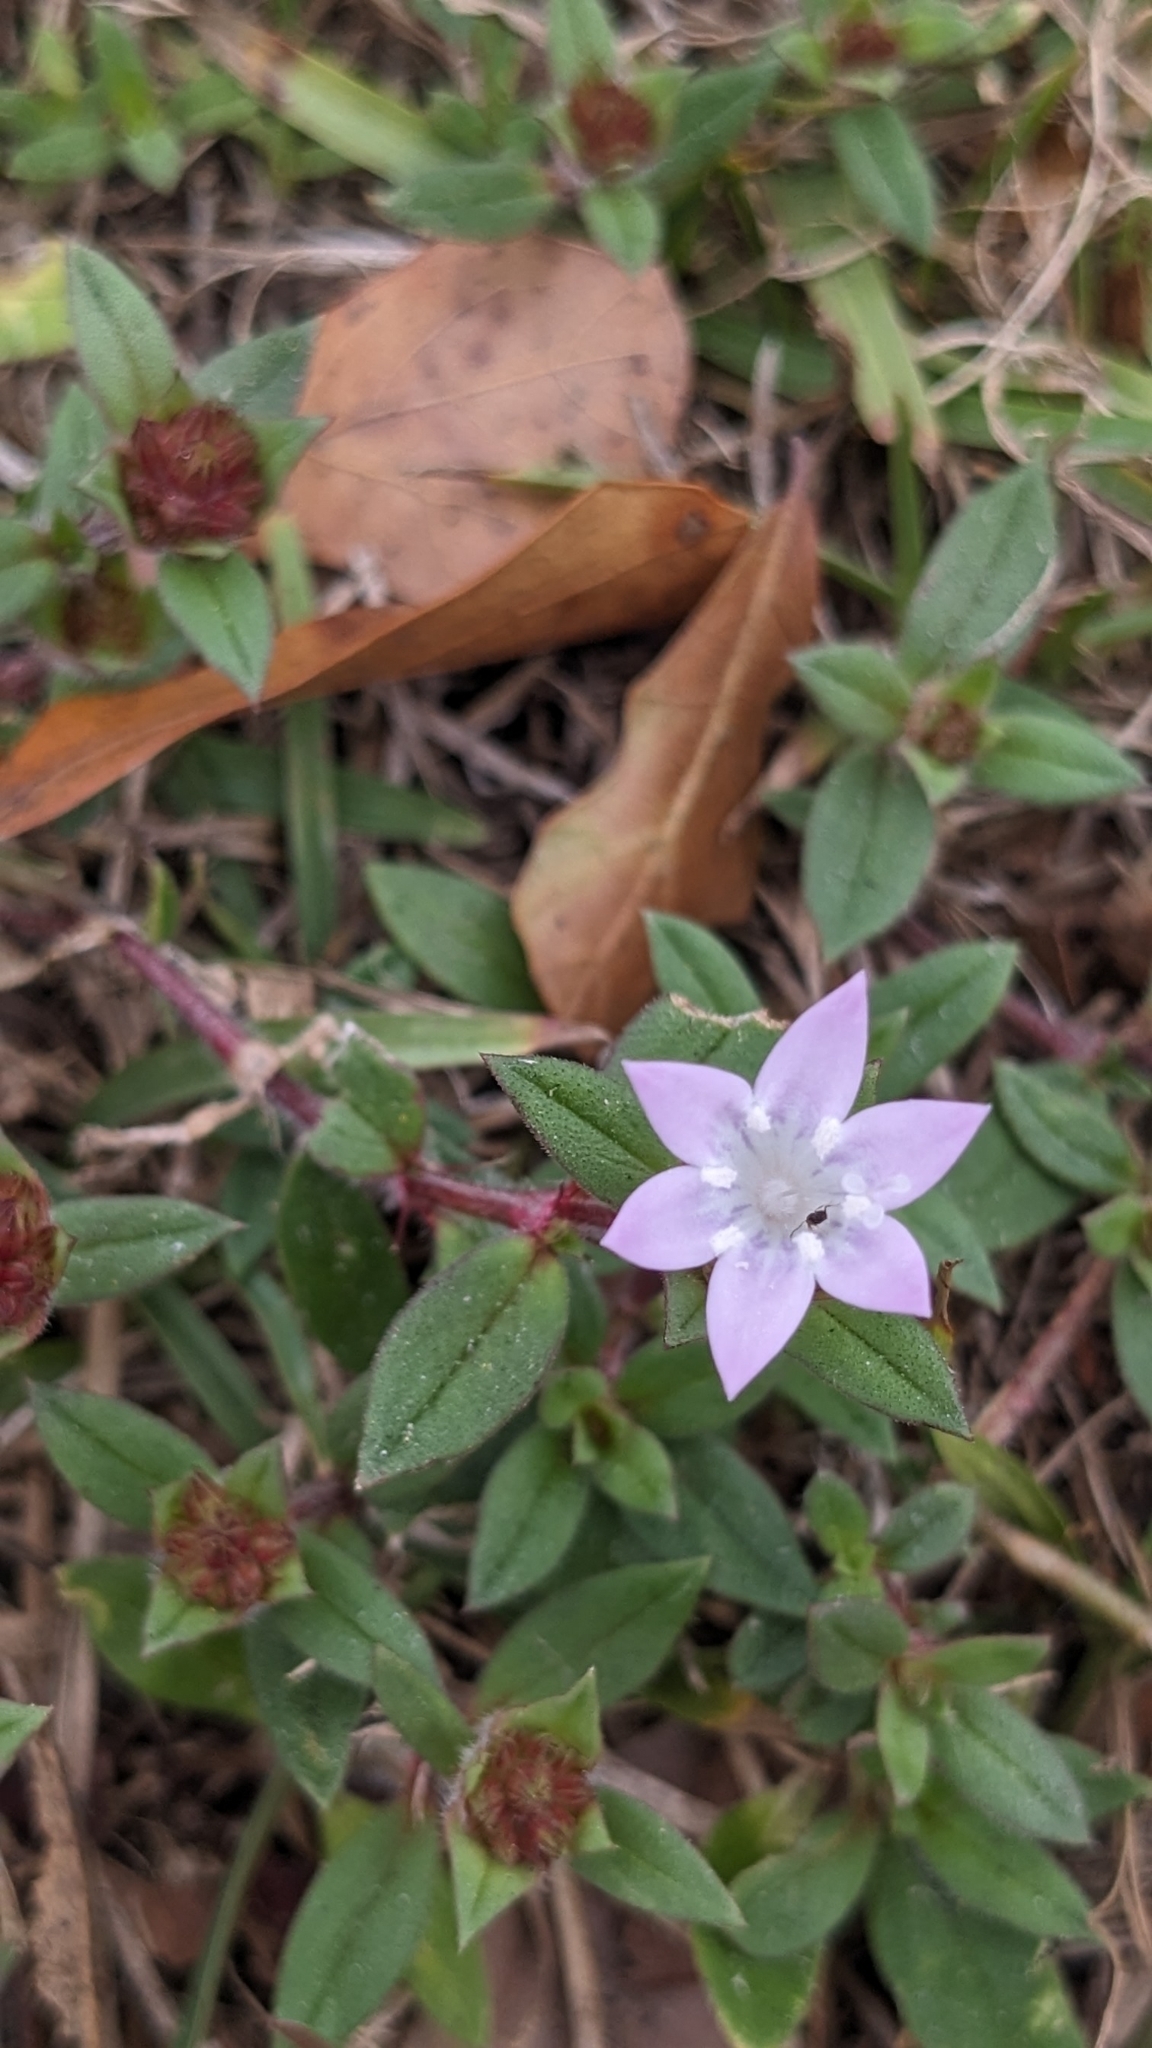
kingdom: Plantae
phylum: Tracheophyta
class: Magnoliopsida
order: Gentianales
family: Rubiaceae
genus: Richardia
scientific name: Richardia grandiflora
